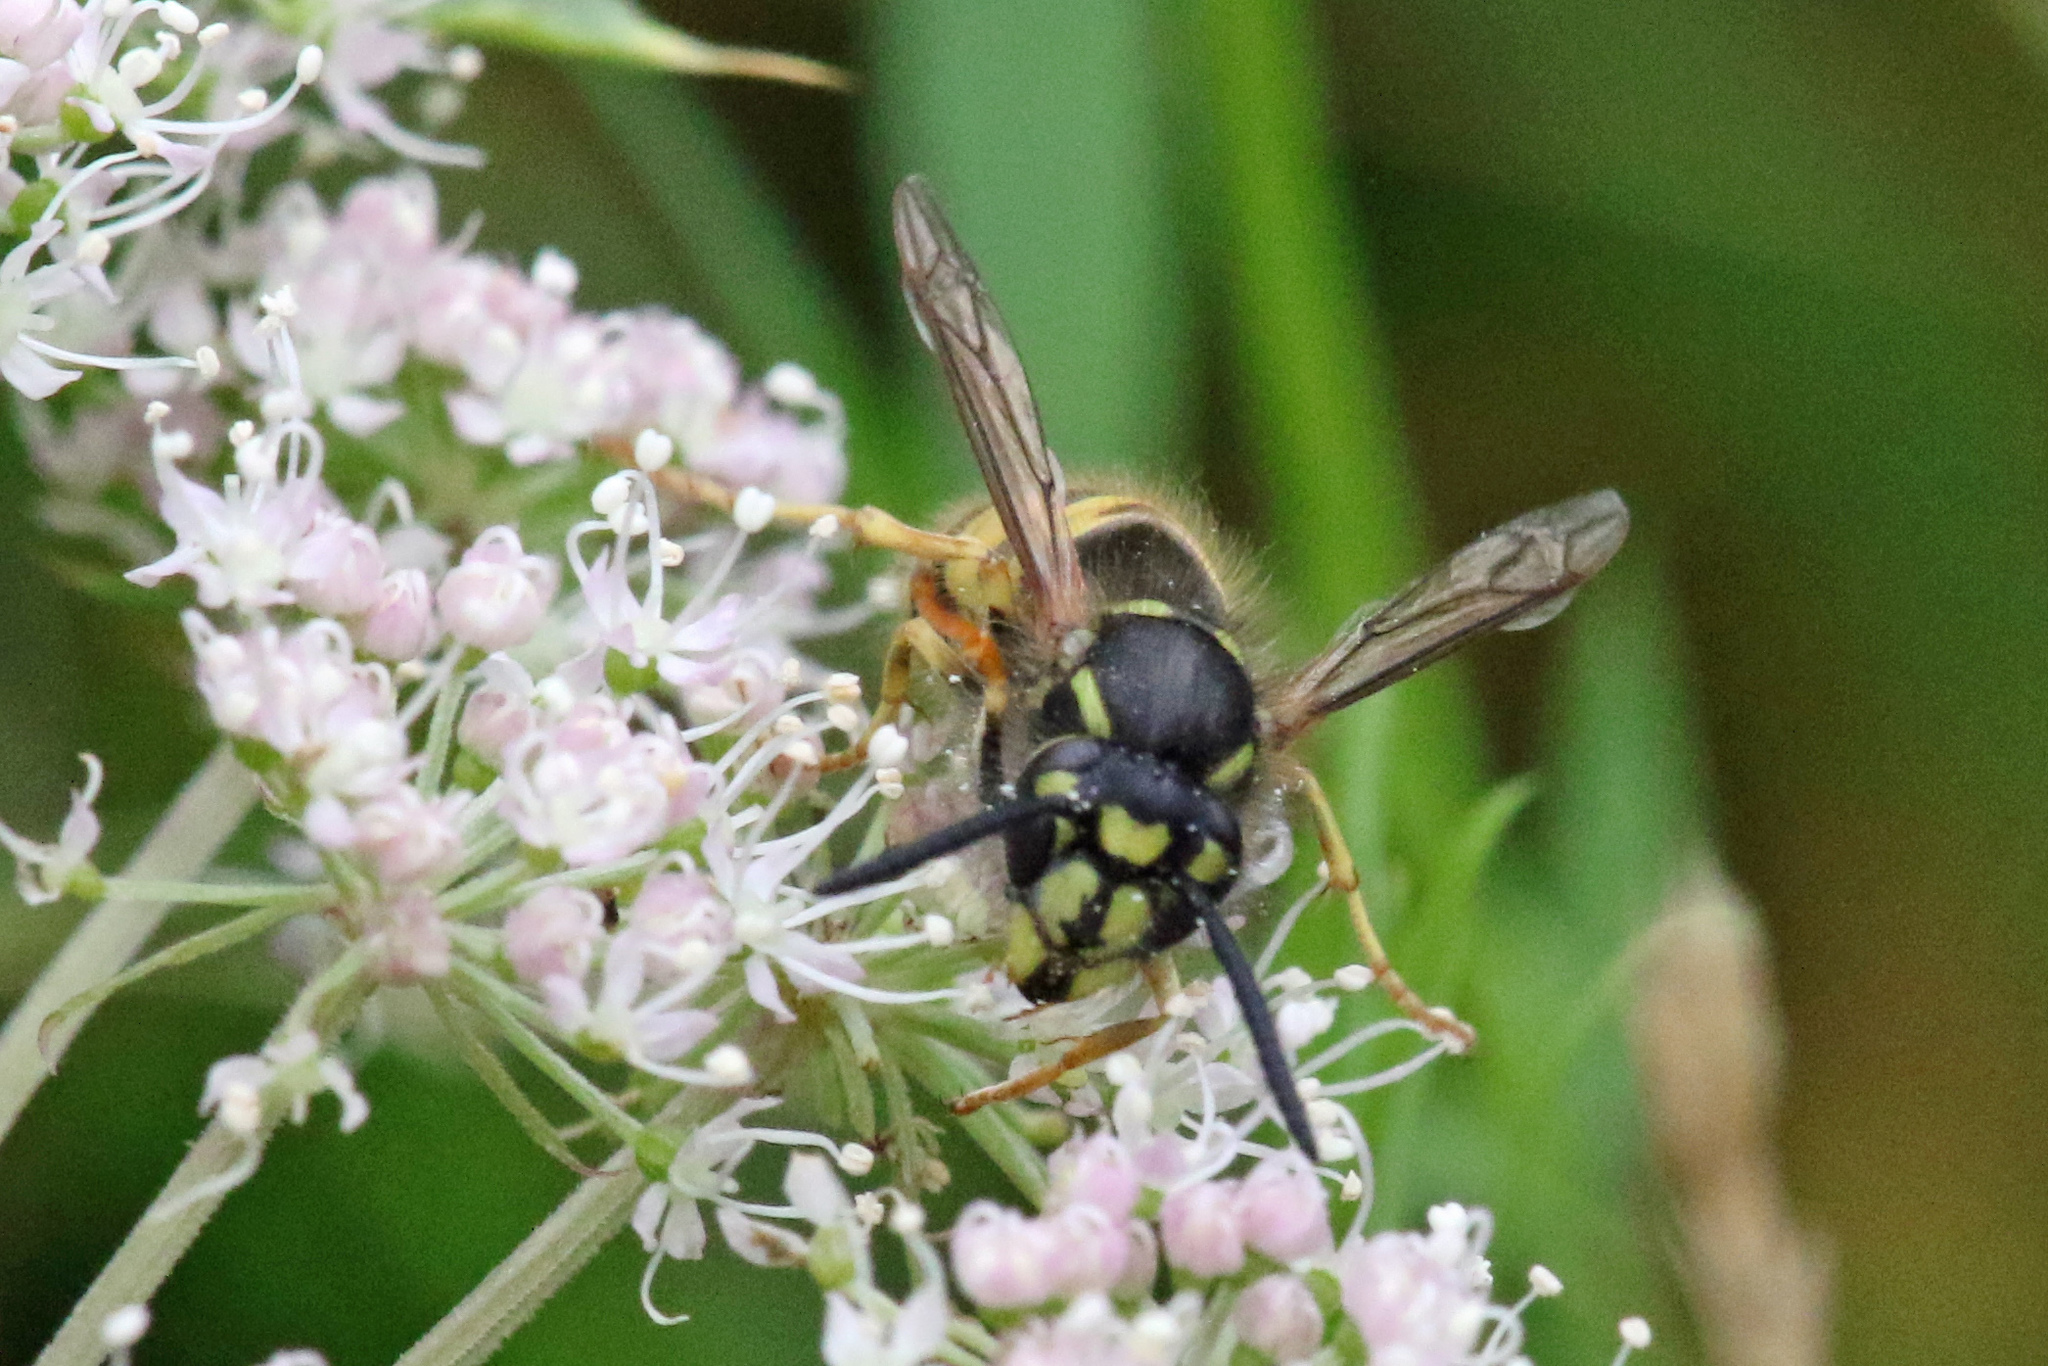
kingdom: Animalia
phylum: Arthropoda
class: Insecta
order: Hymenoptera
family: Vespidae
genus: Vespula
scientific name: Vespula vulgaris
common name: Common wasp
